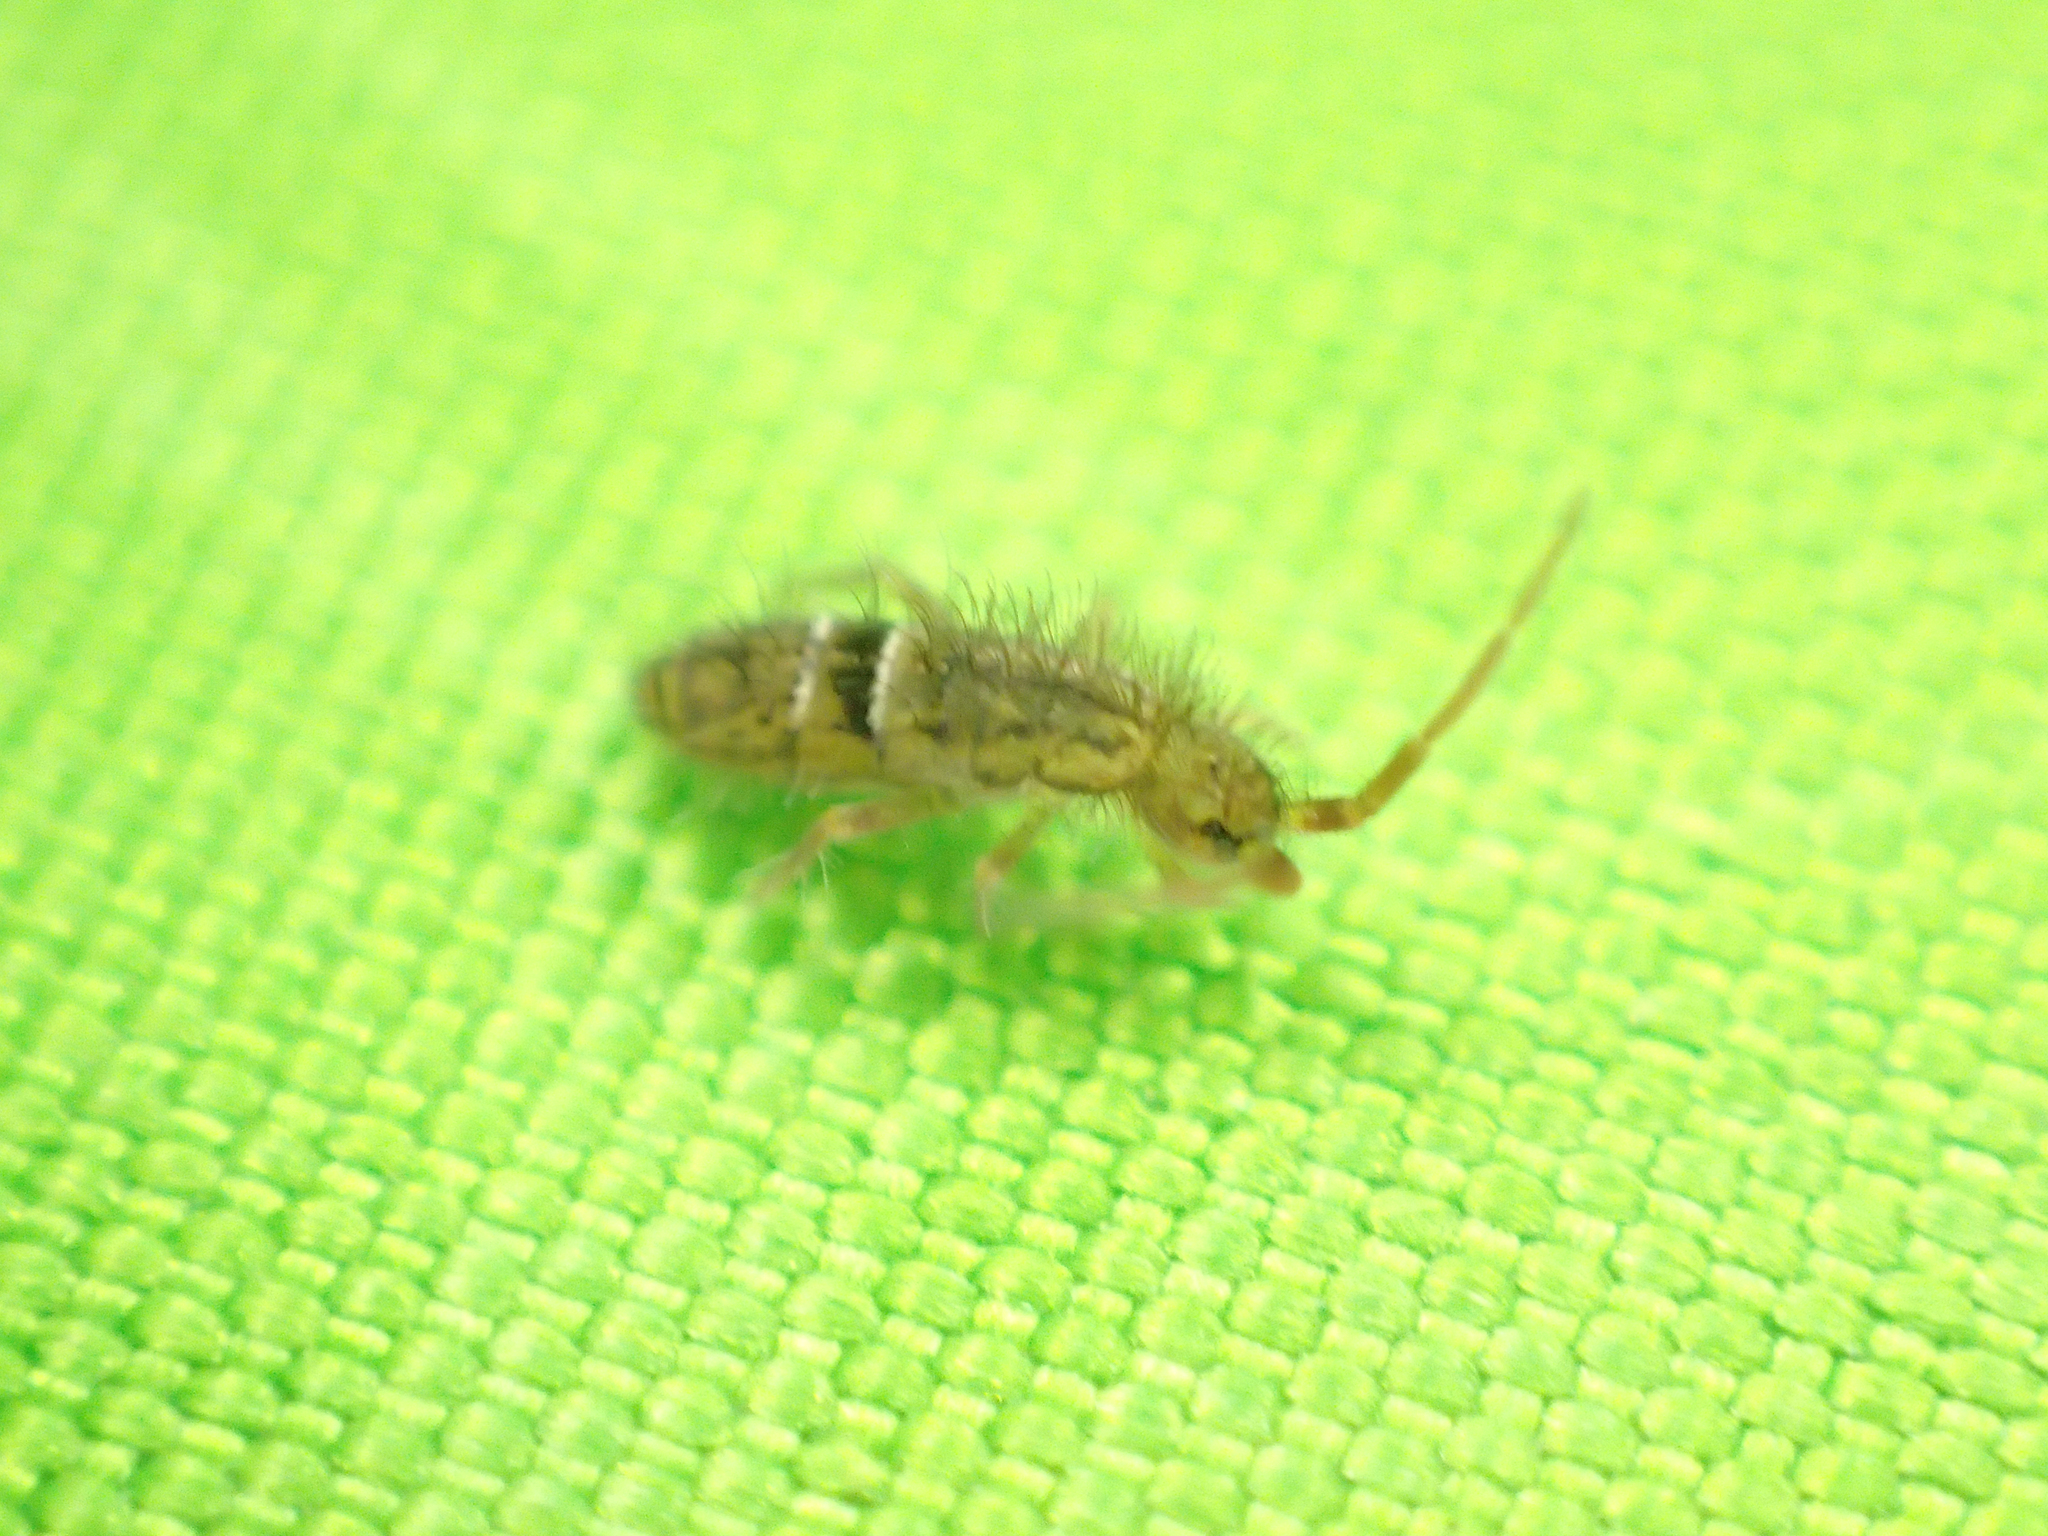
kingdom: Animalia
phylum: Arthropoda
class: Collembola
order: Entomobryomorpha
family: Orchesellidae
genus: Orchesella
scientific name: Orchesella cincta
